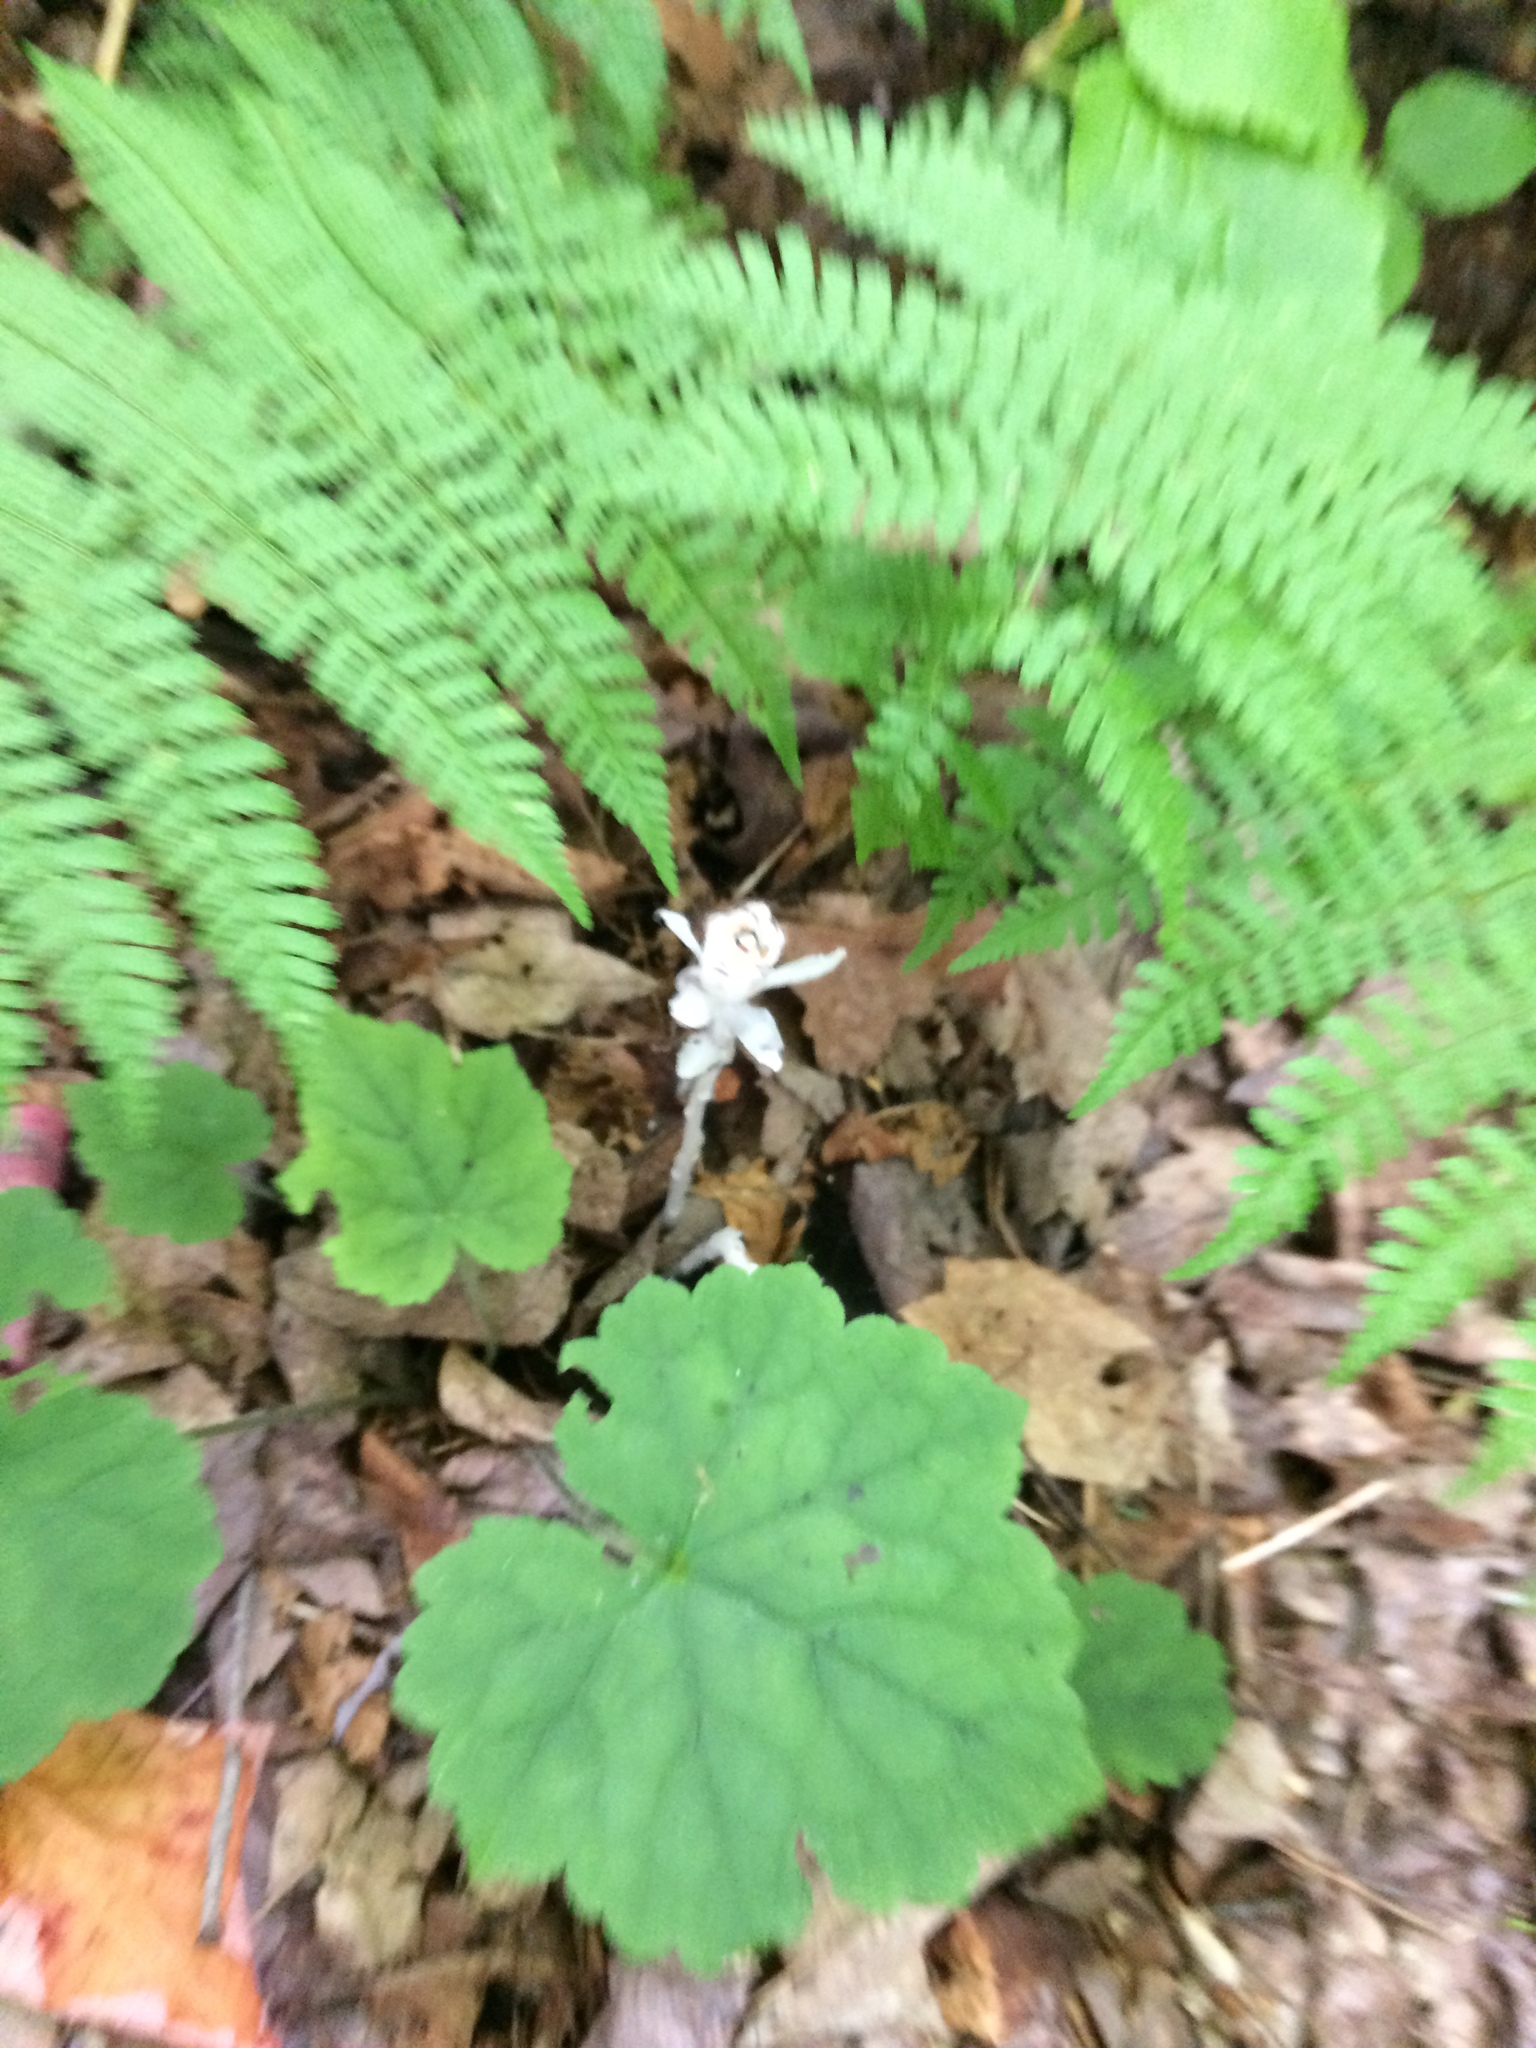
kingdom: Plantae
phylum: Tracheophyta
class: Magnoliopsida
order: Ericales
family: Ericaceae
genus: Monotropa
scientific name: Monotropa uniflora
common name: Convulsion root
